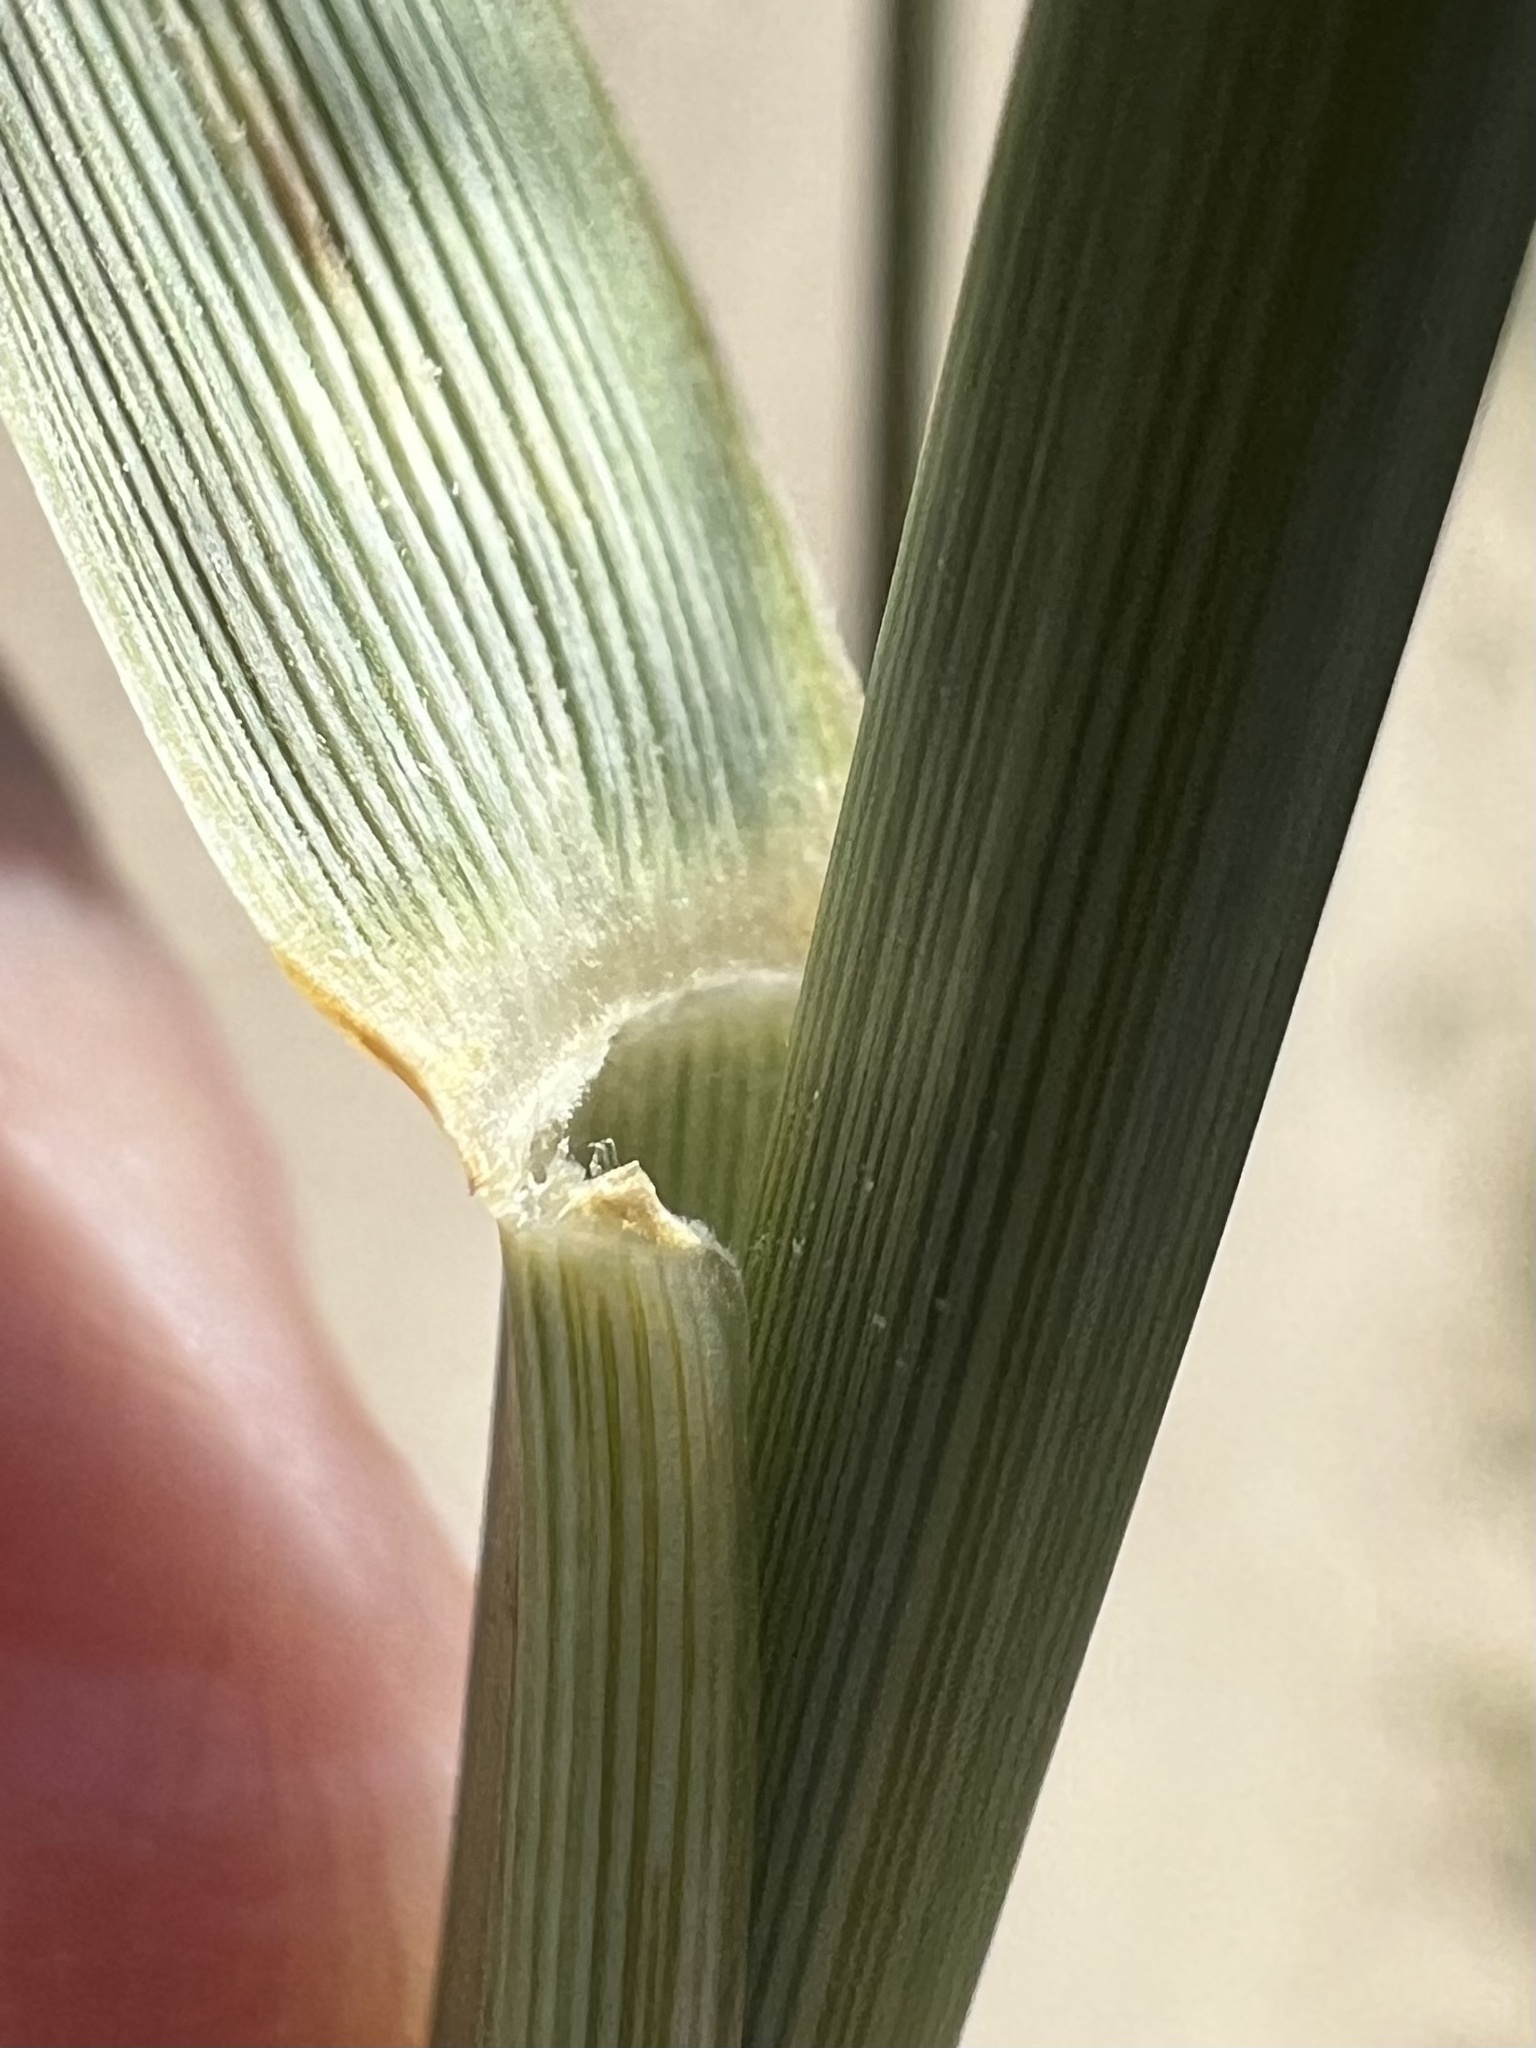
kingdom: Plantae
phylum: Tracheophyta
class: Liliopsida
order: Poales
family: Poaceae
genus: Sporobolus
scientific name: Sporobolus airoides
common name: Alkali sacaton
